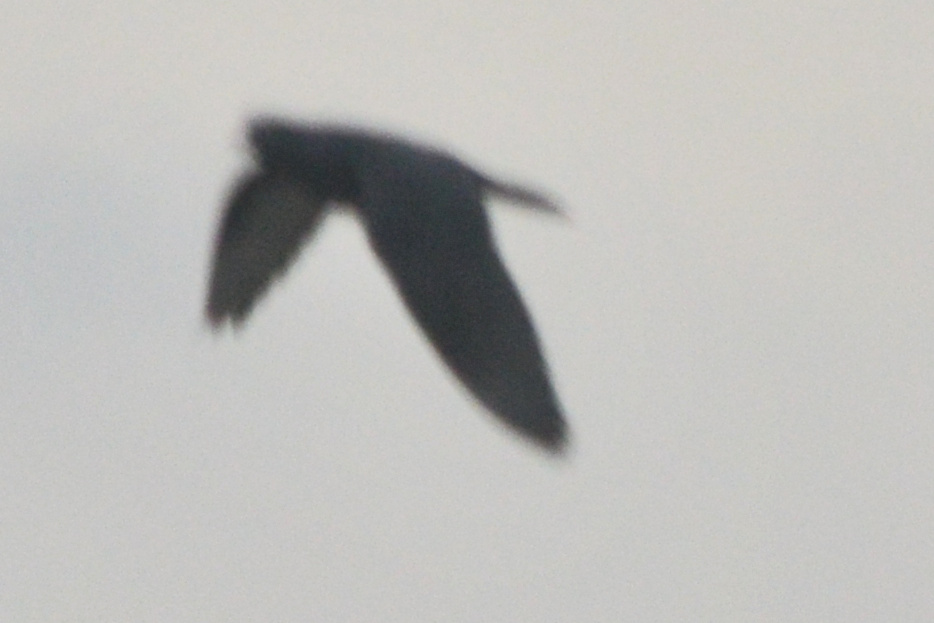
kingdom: Animalia
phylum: Chordata
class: Aves
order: Columbiformes
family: Columbidae
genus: Columba
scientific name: Columba livia
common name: Rock pigeon
